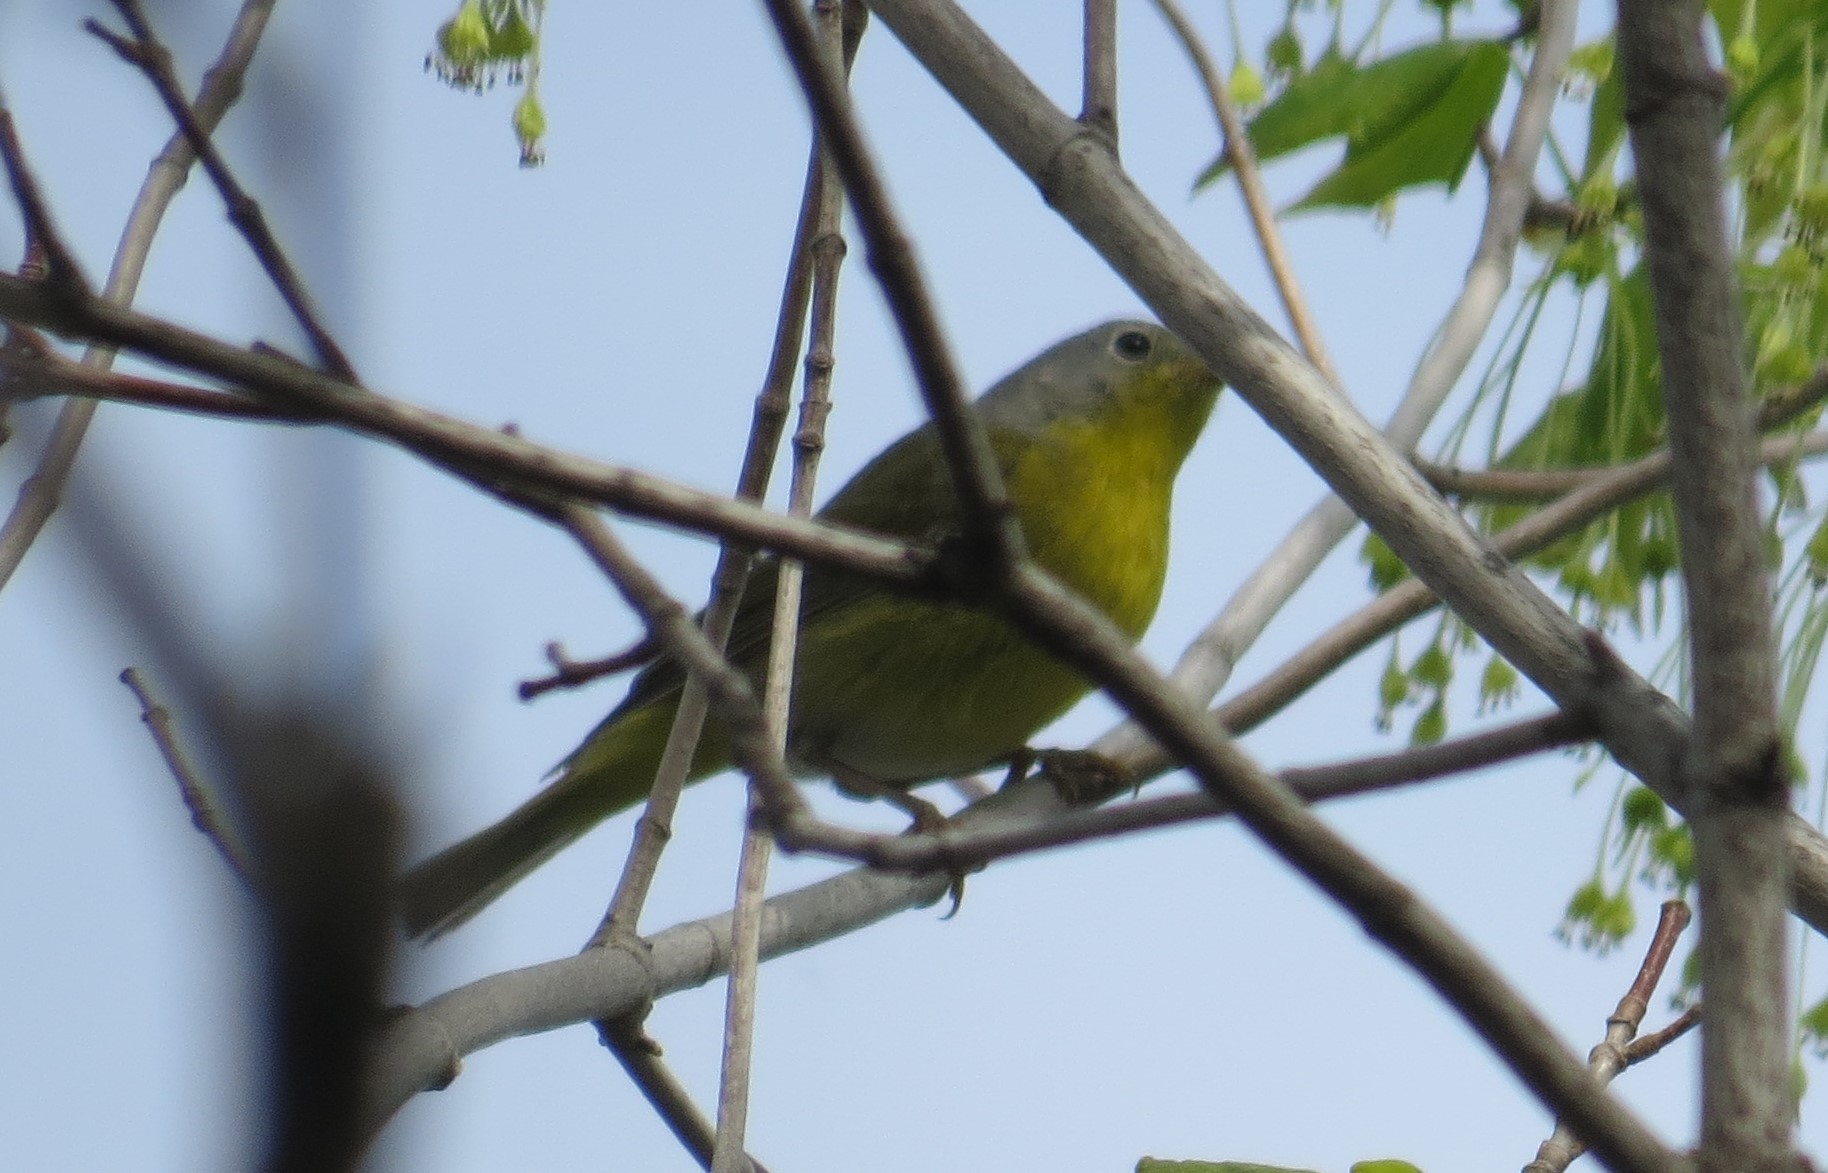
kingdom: Animalia
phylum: Chordata
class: Aves
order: Passeriformes
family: Parulidae
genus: Leiothlypis
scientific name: Leiothlypis ruficapilla
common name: Nashville warbler
